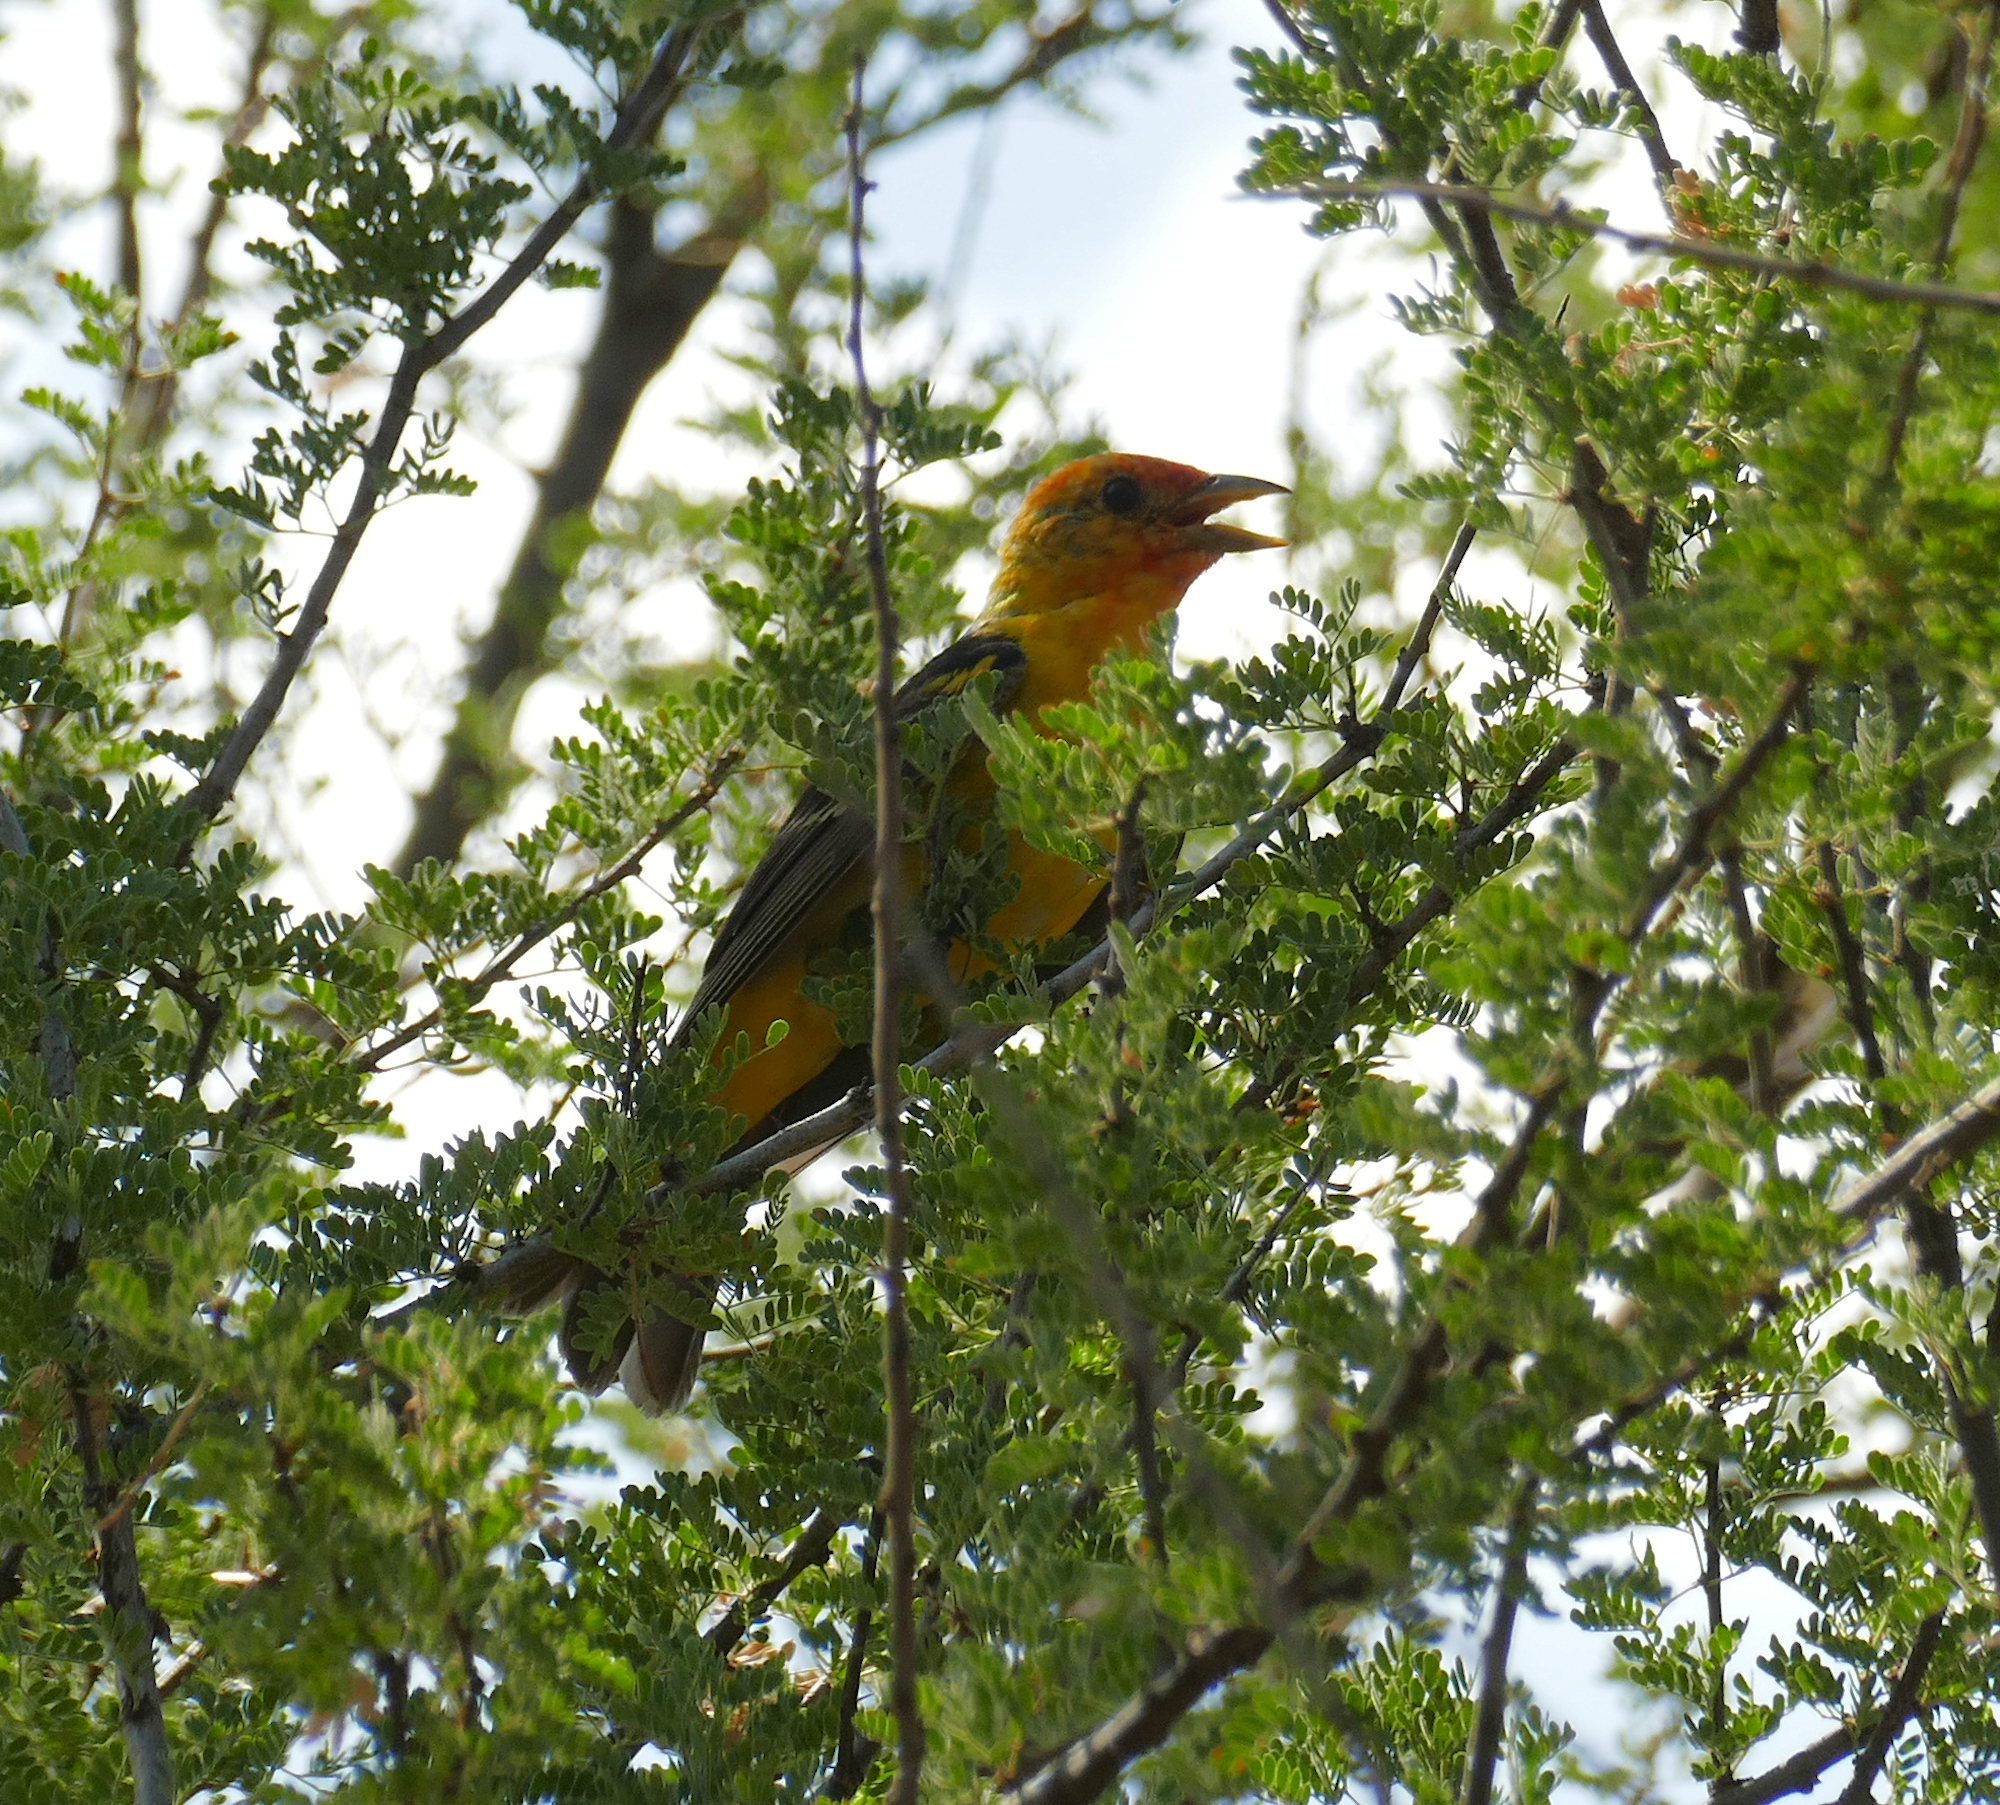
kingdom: Animalia
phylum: Chordata
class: Aves
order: Passeriformes
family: Cardinalidae
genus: Piranga
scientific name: Piranga ludoviciana
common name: Western tanager
